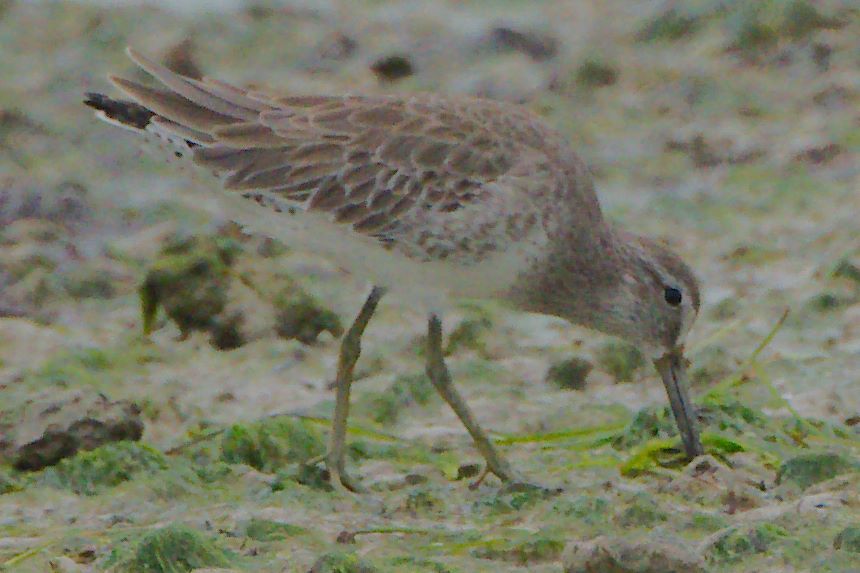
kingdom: Animalia
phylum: Chordata
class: Aves
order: Charadriiformes
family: Scolopacidae
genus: Limnodromus
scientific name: Limnodromus griseus
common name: Short-billed dowitcher
